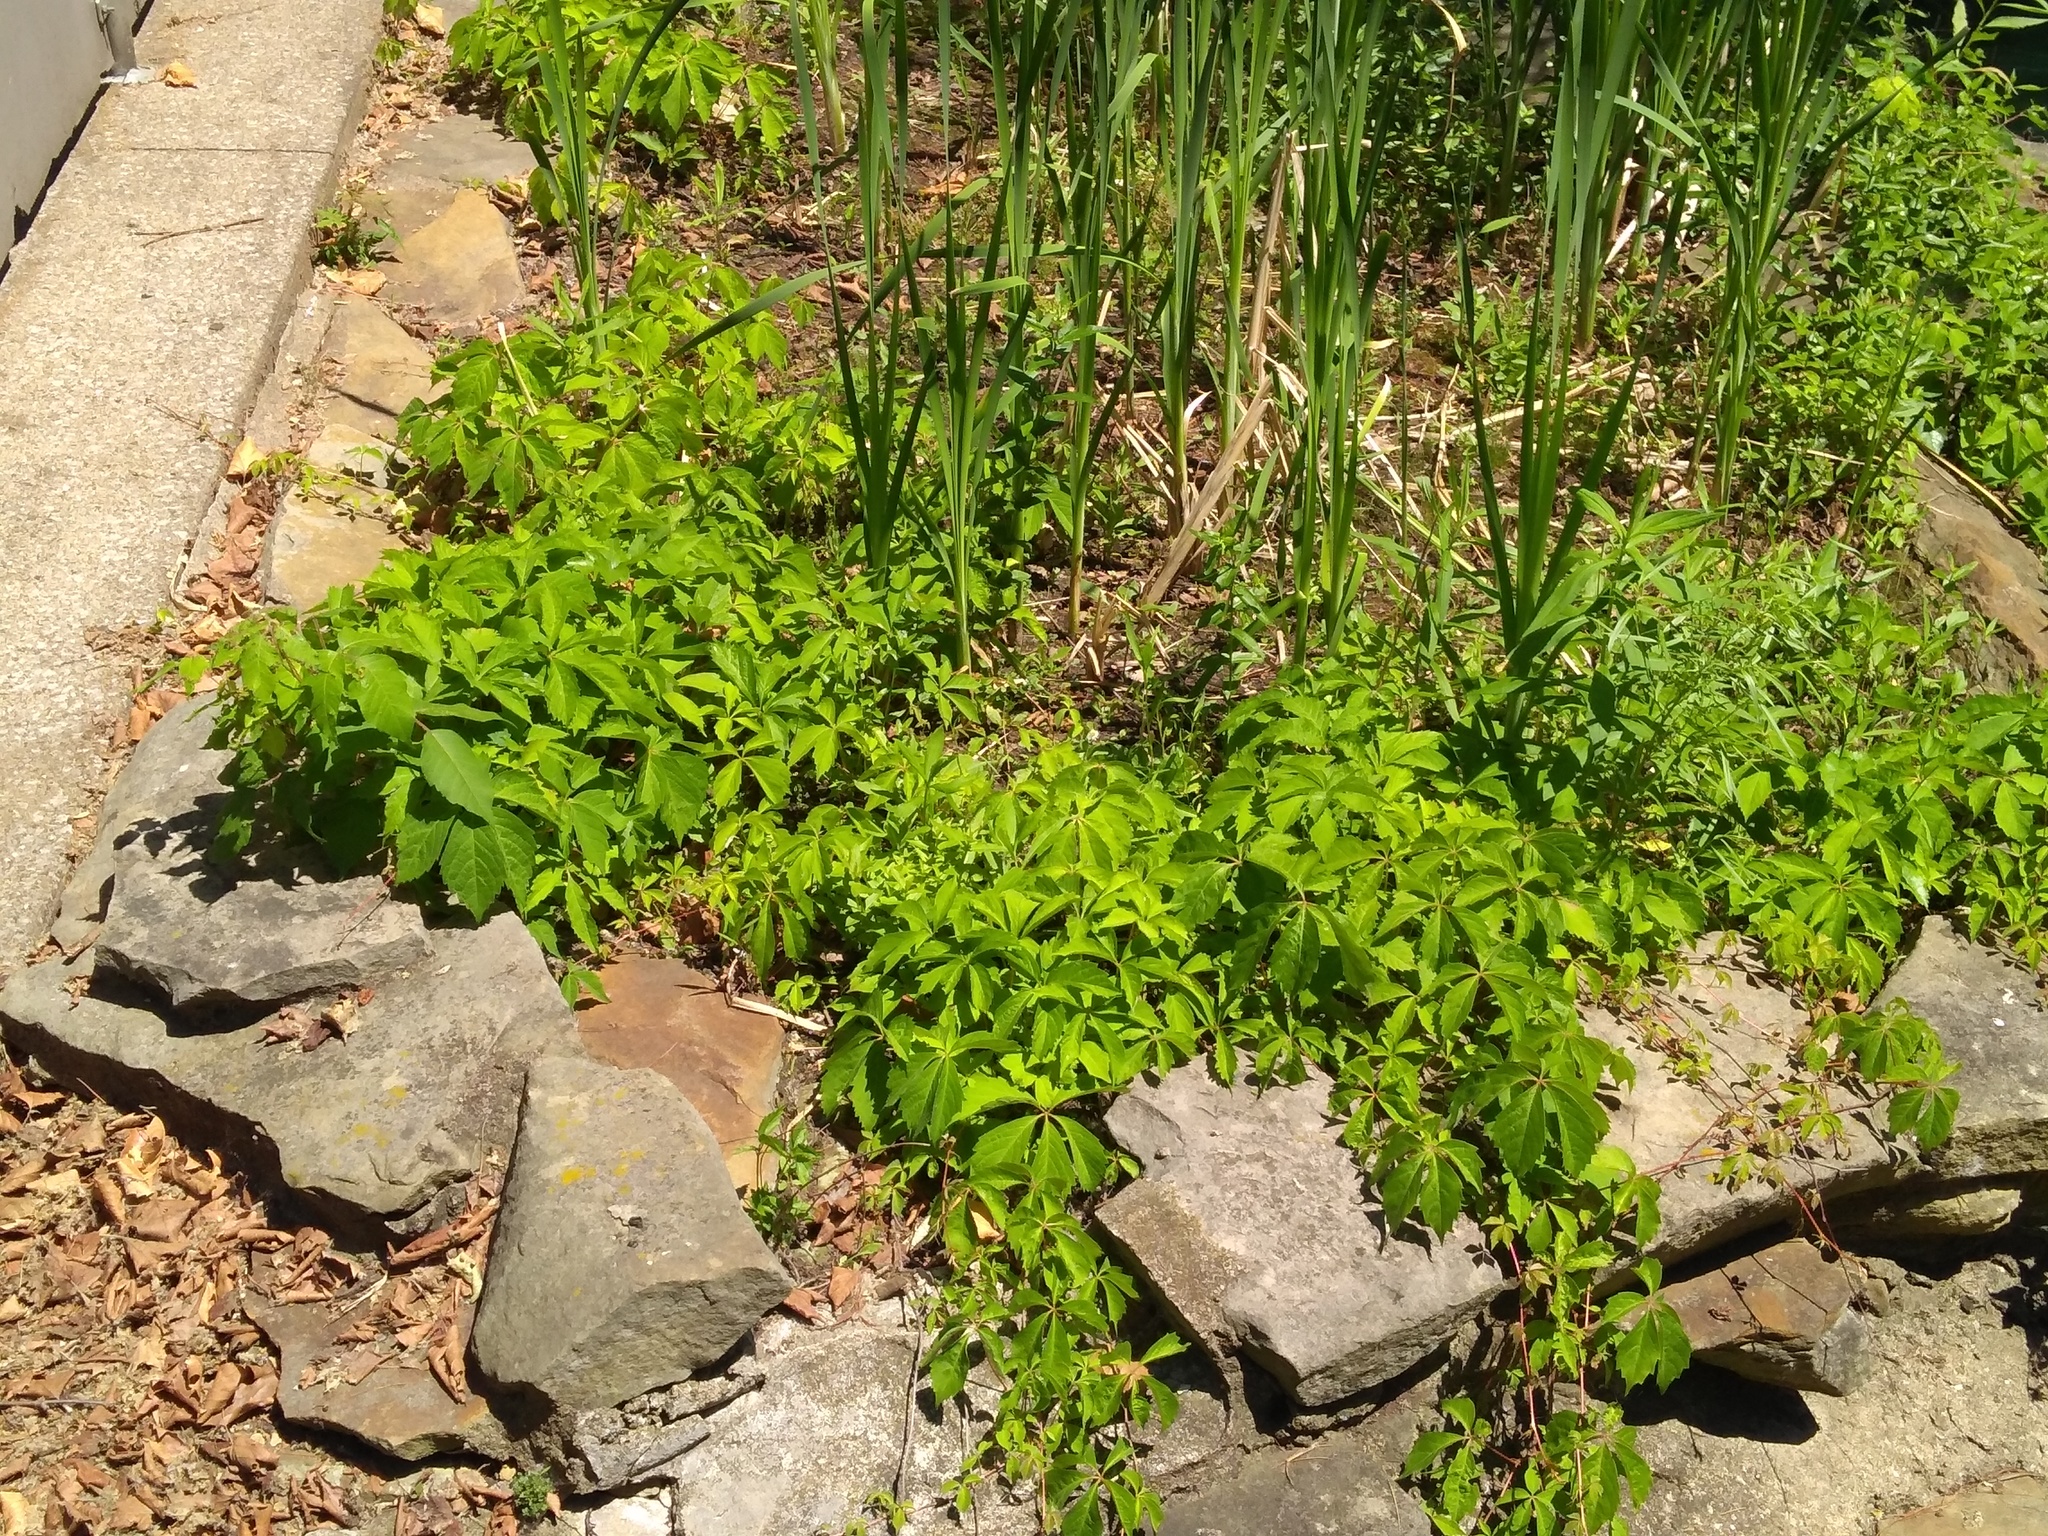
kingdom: Plantae
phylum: Tracheophyta
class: Magnoliopsida
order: Vitales
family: Vitaceae
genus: Parthenocissus
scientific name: Parthenocissus quinquefolia
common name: Virginia-creeper
